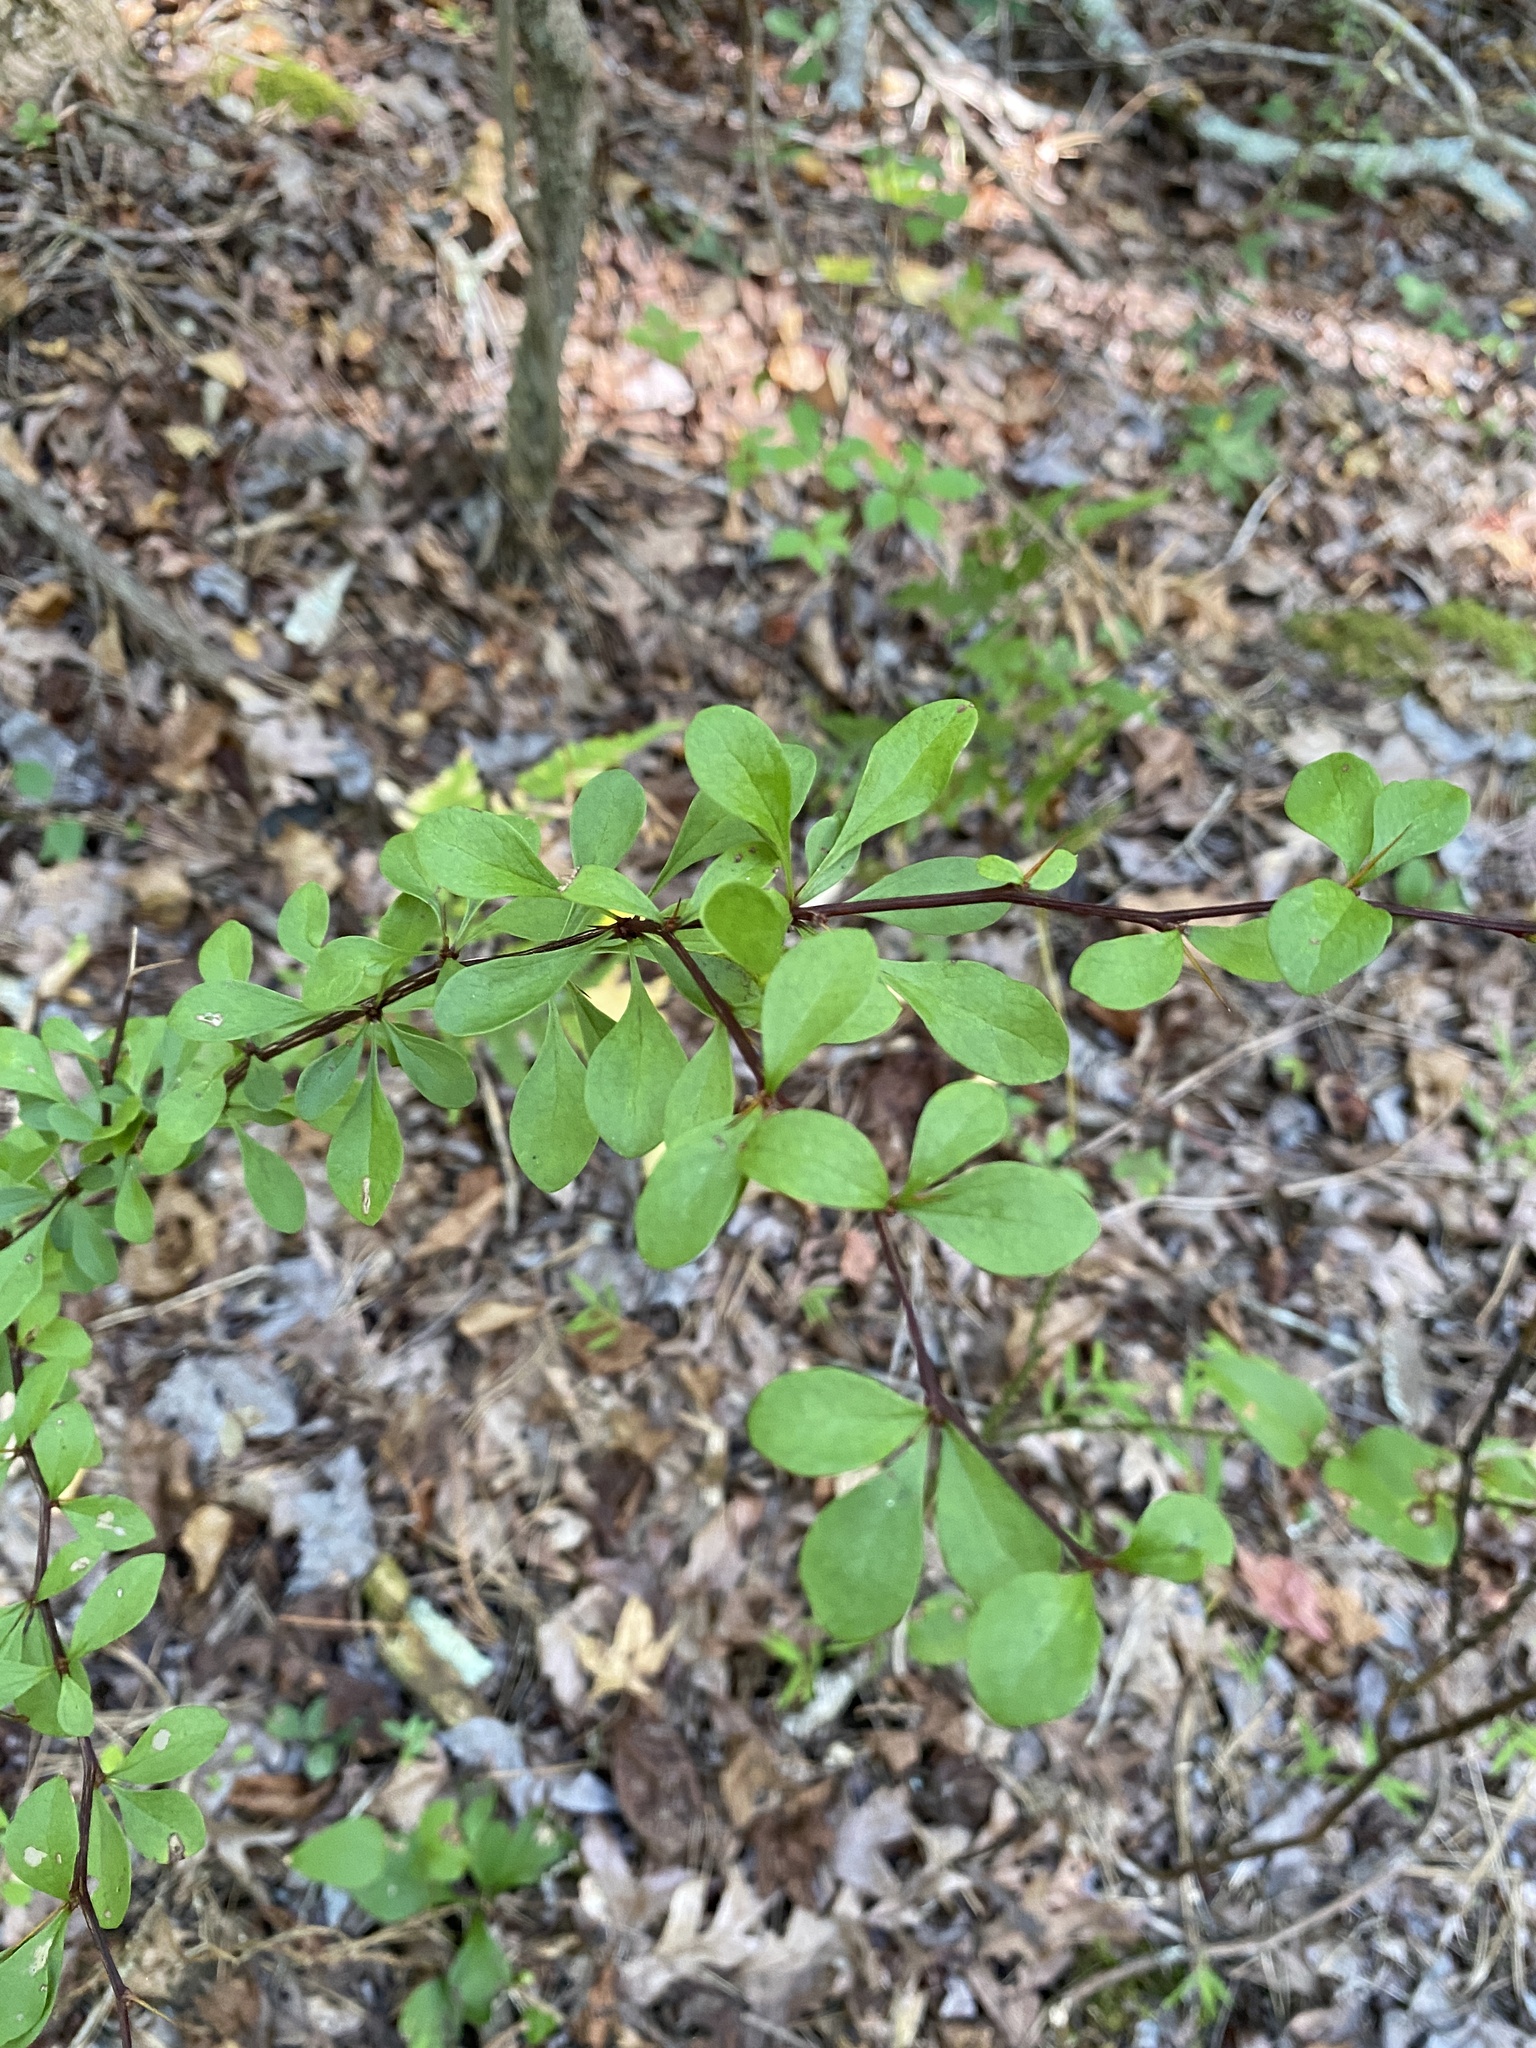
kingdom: Plantae
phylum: Tracheophyta
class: Magnoliopsida
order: Ranunculales
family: Berberidaceae
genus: Berberis
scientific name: Berberis thunbergii
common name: Japanese barberry
